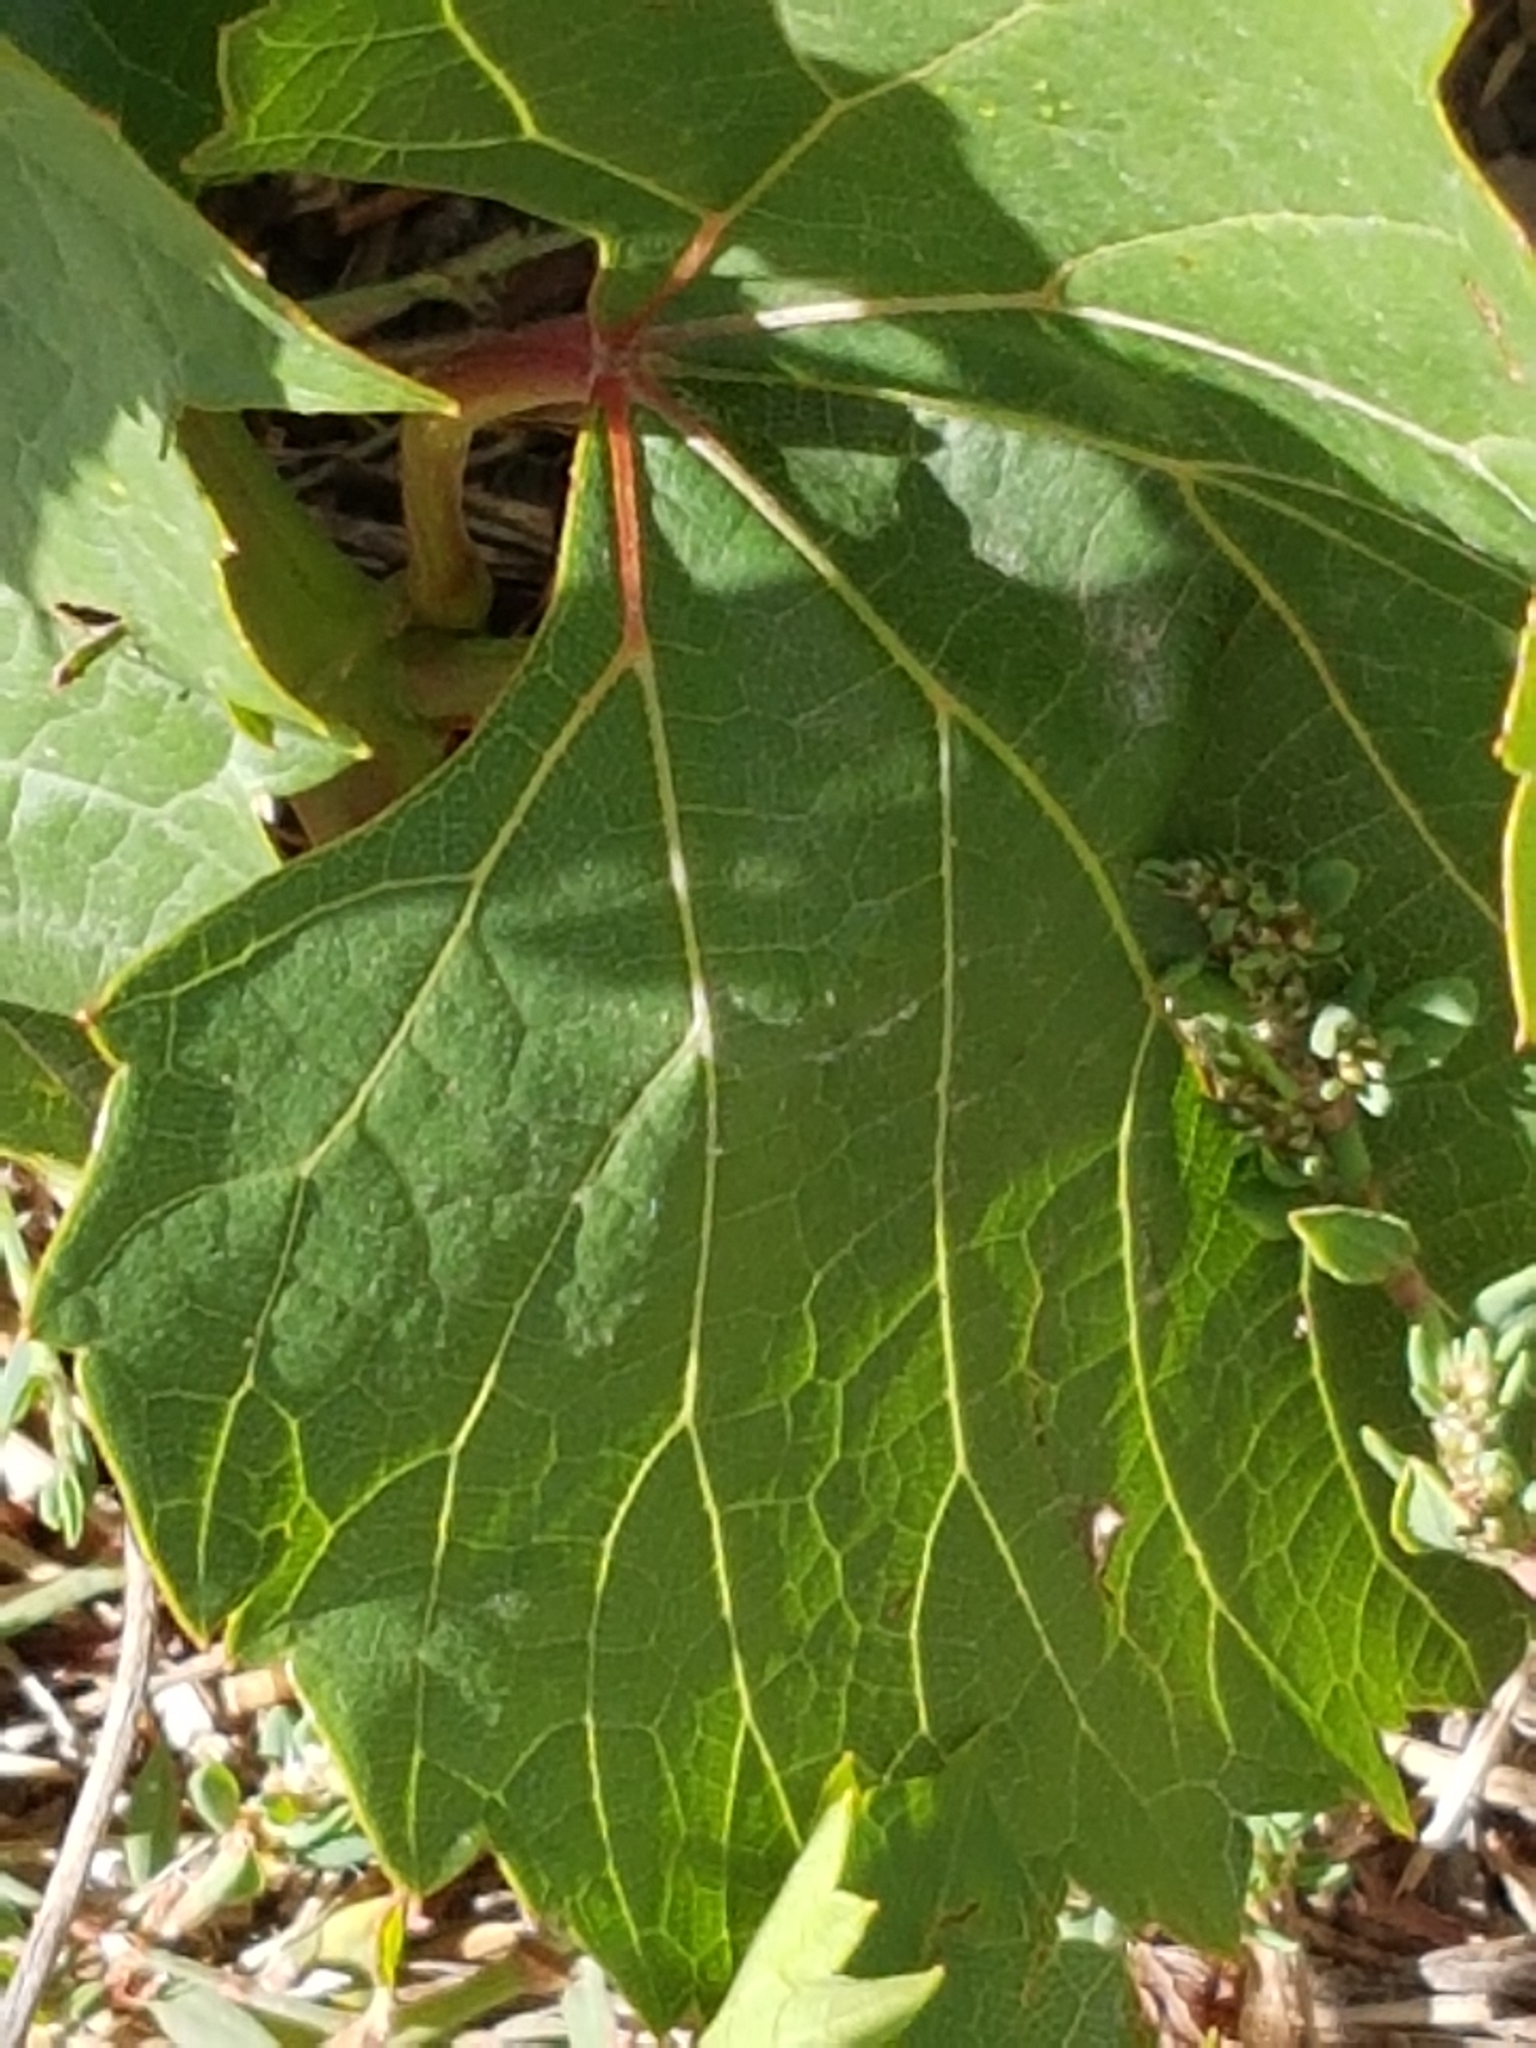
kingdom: Plantae
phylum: Tracheophyta
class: Magnoliopsida
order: Vitales
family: Vitaceae
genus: Vitis
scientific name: Vitis vinifera
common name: Grape-vine
